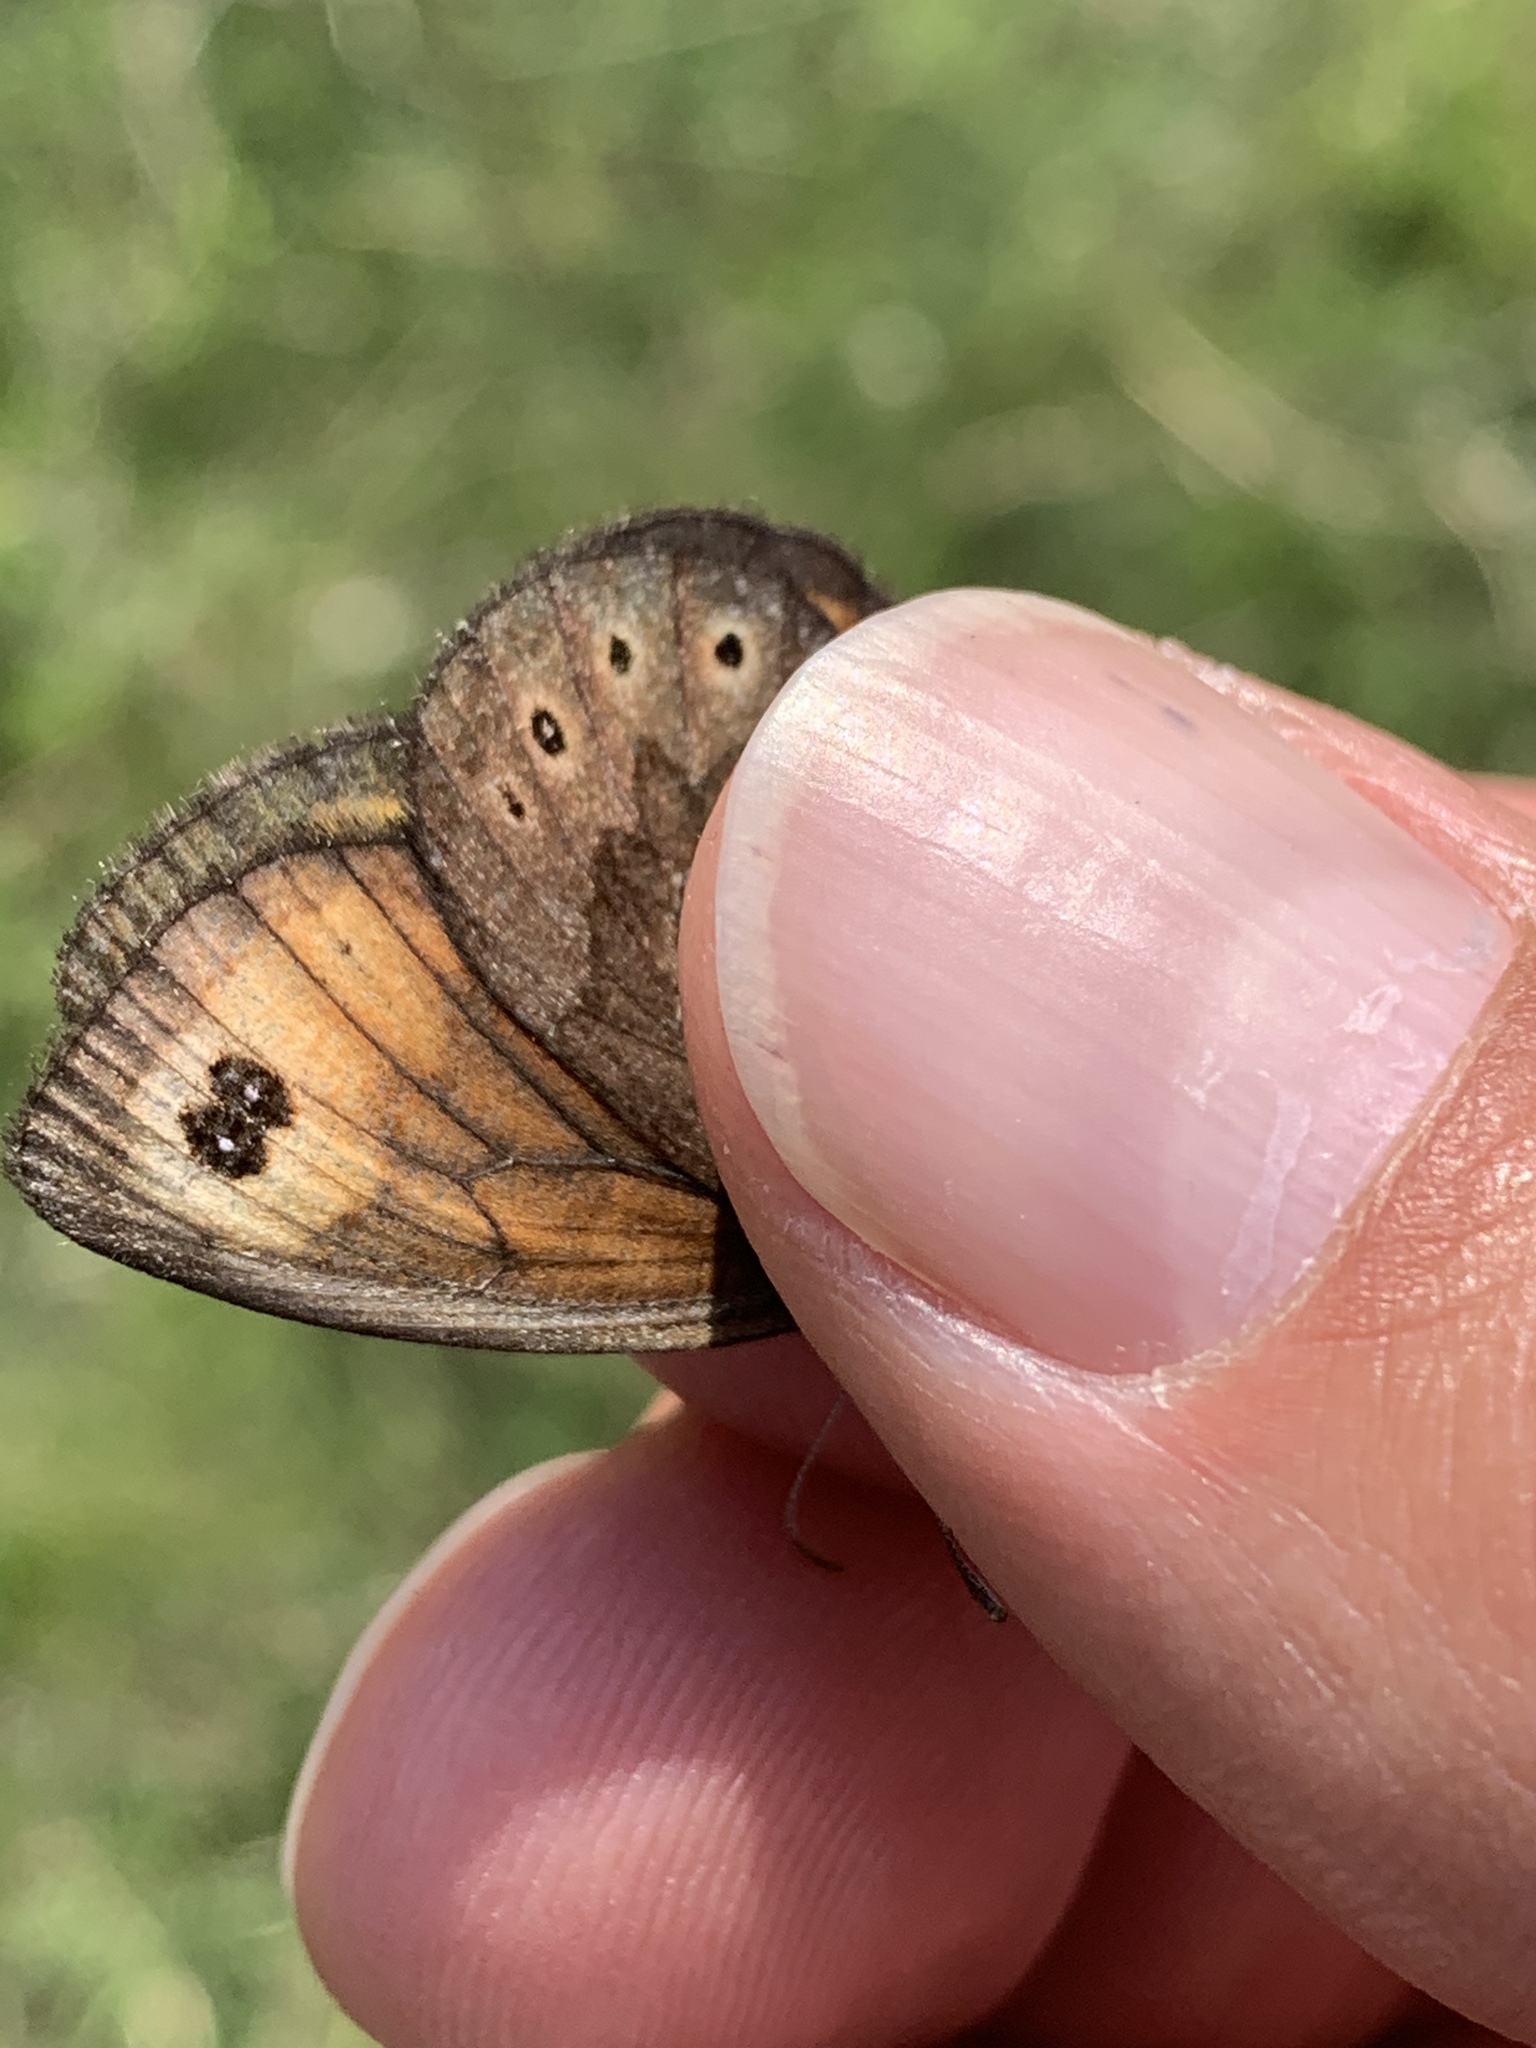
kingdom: Animalia
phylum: Arthropoda
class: Insecta
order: Lepidoptera
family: Nymphalidae
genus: Erebia
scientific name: Erebia epipsodea
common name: Common alpine
